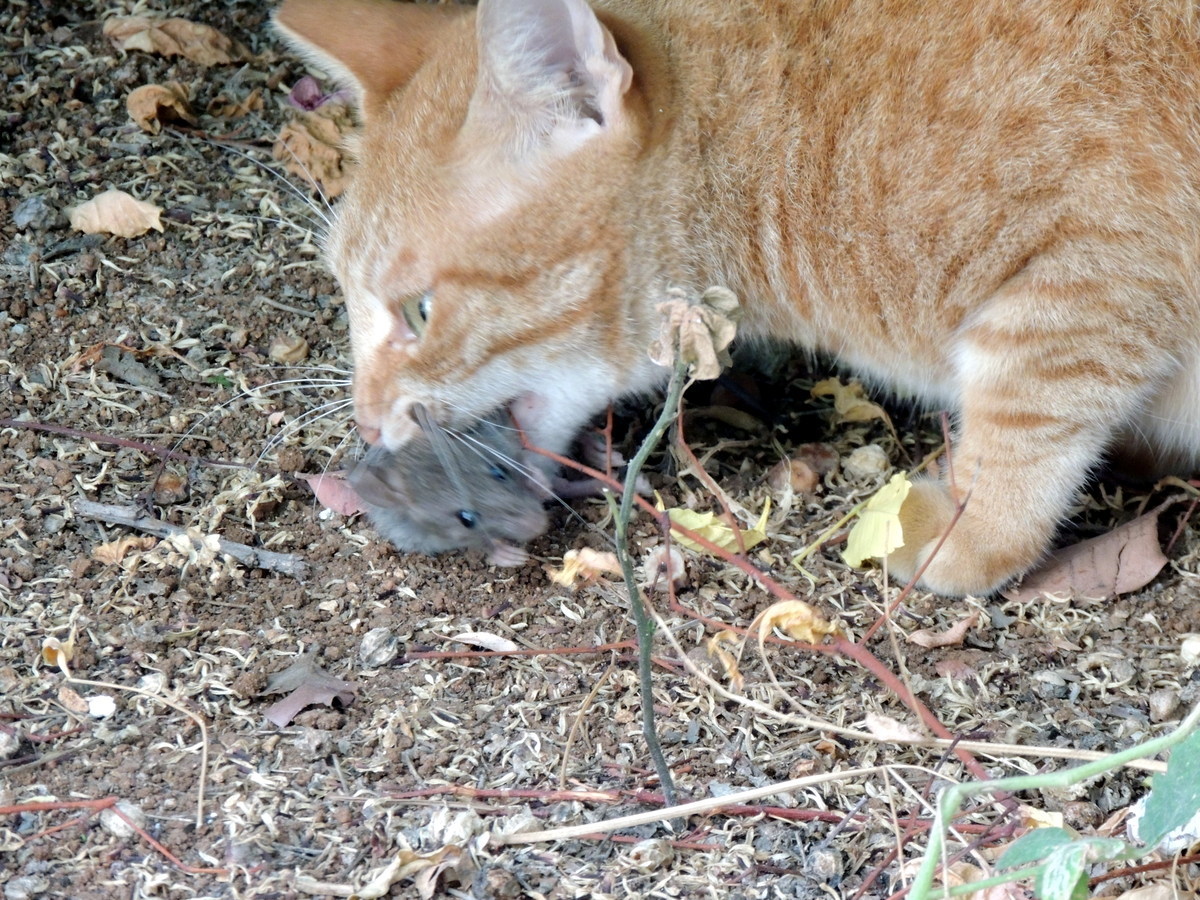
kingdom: Animalia
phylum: Chordata
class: Mammalia
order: Rodentia
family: Muridae
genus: Mus
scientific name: Mus musculus
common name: House mouse
